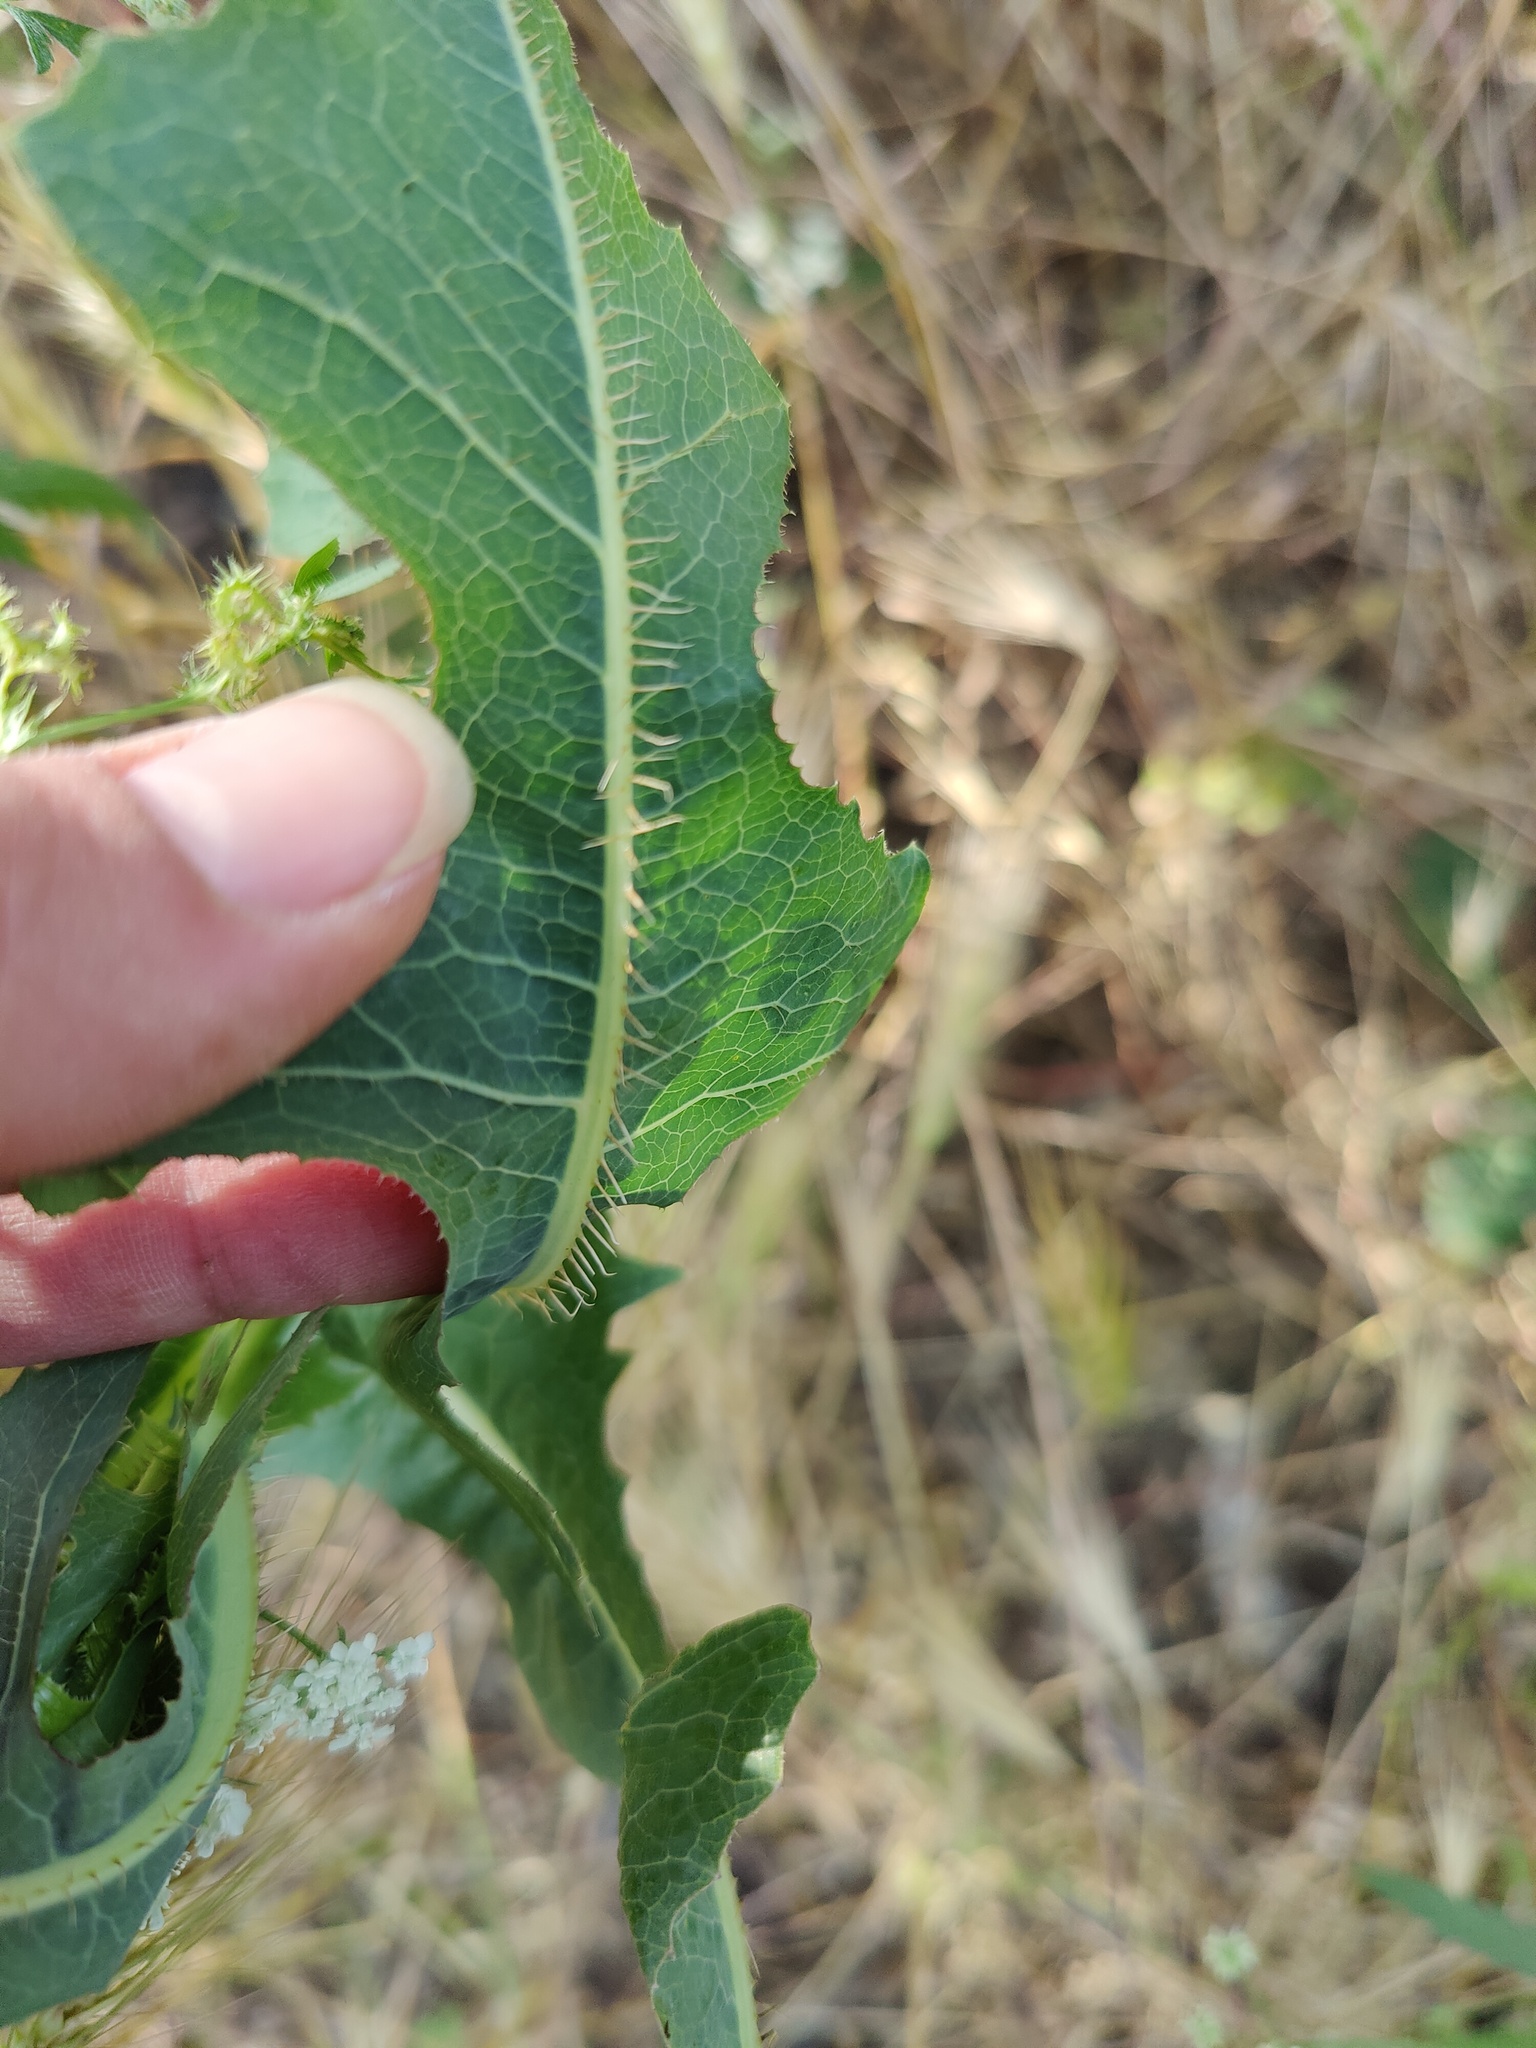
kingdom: Plantae
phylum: Tracheophyta
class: Magnoliopsida
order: Asterales
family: Asteraceae
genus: Lactuca
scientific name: Lactuca serriola
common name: Prickly lettuce
